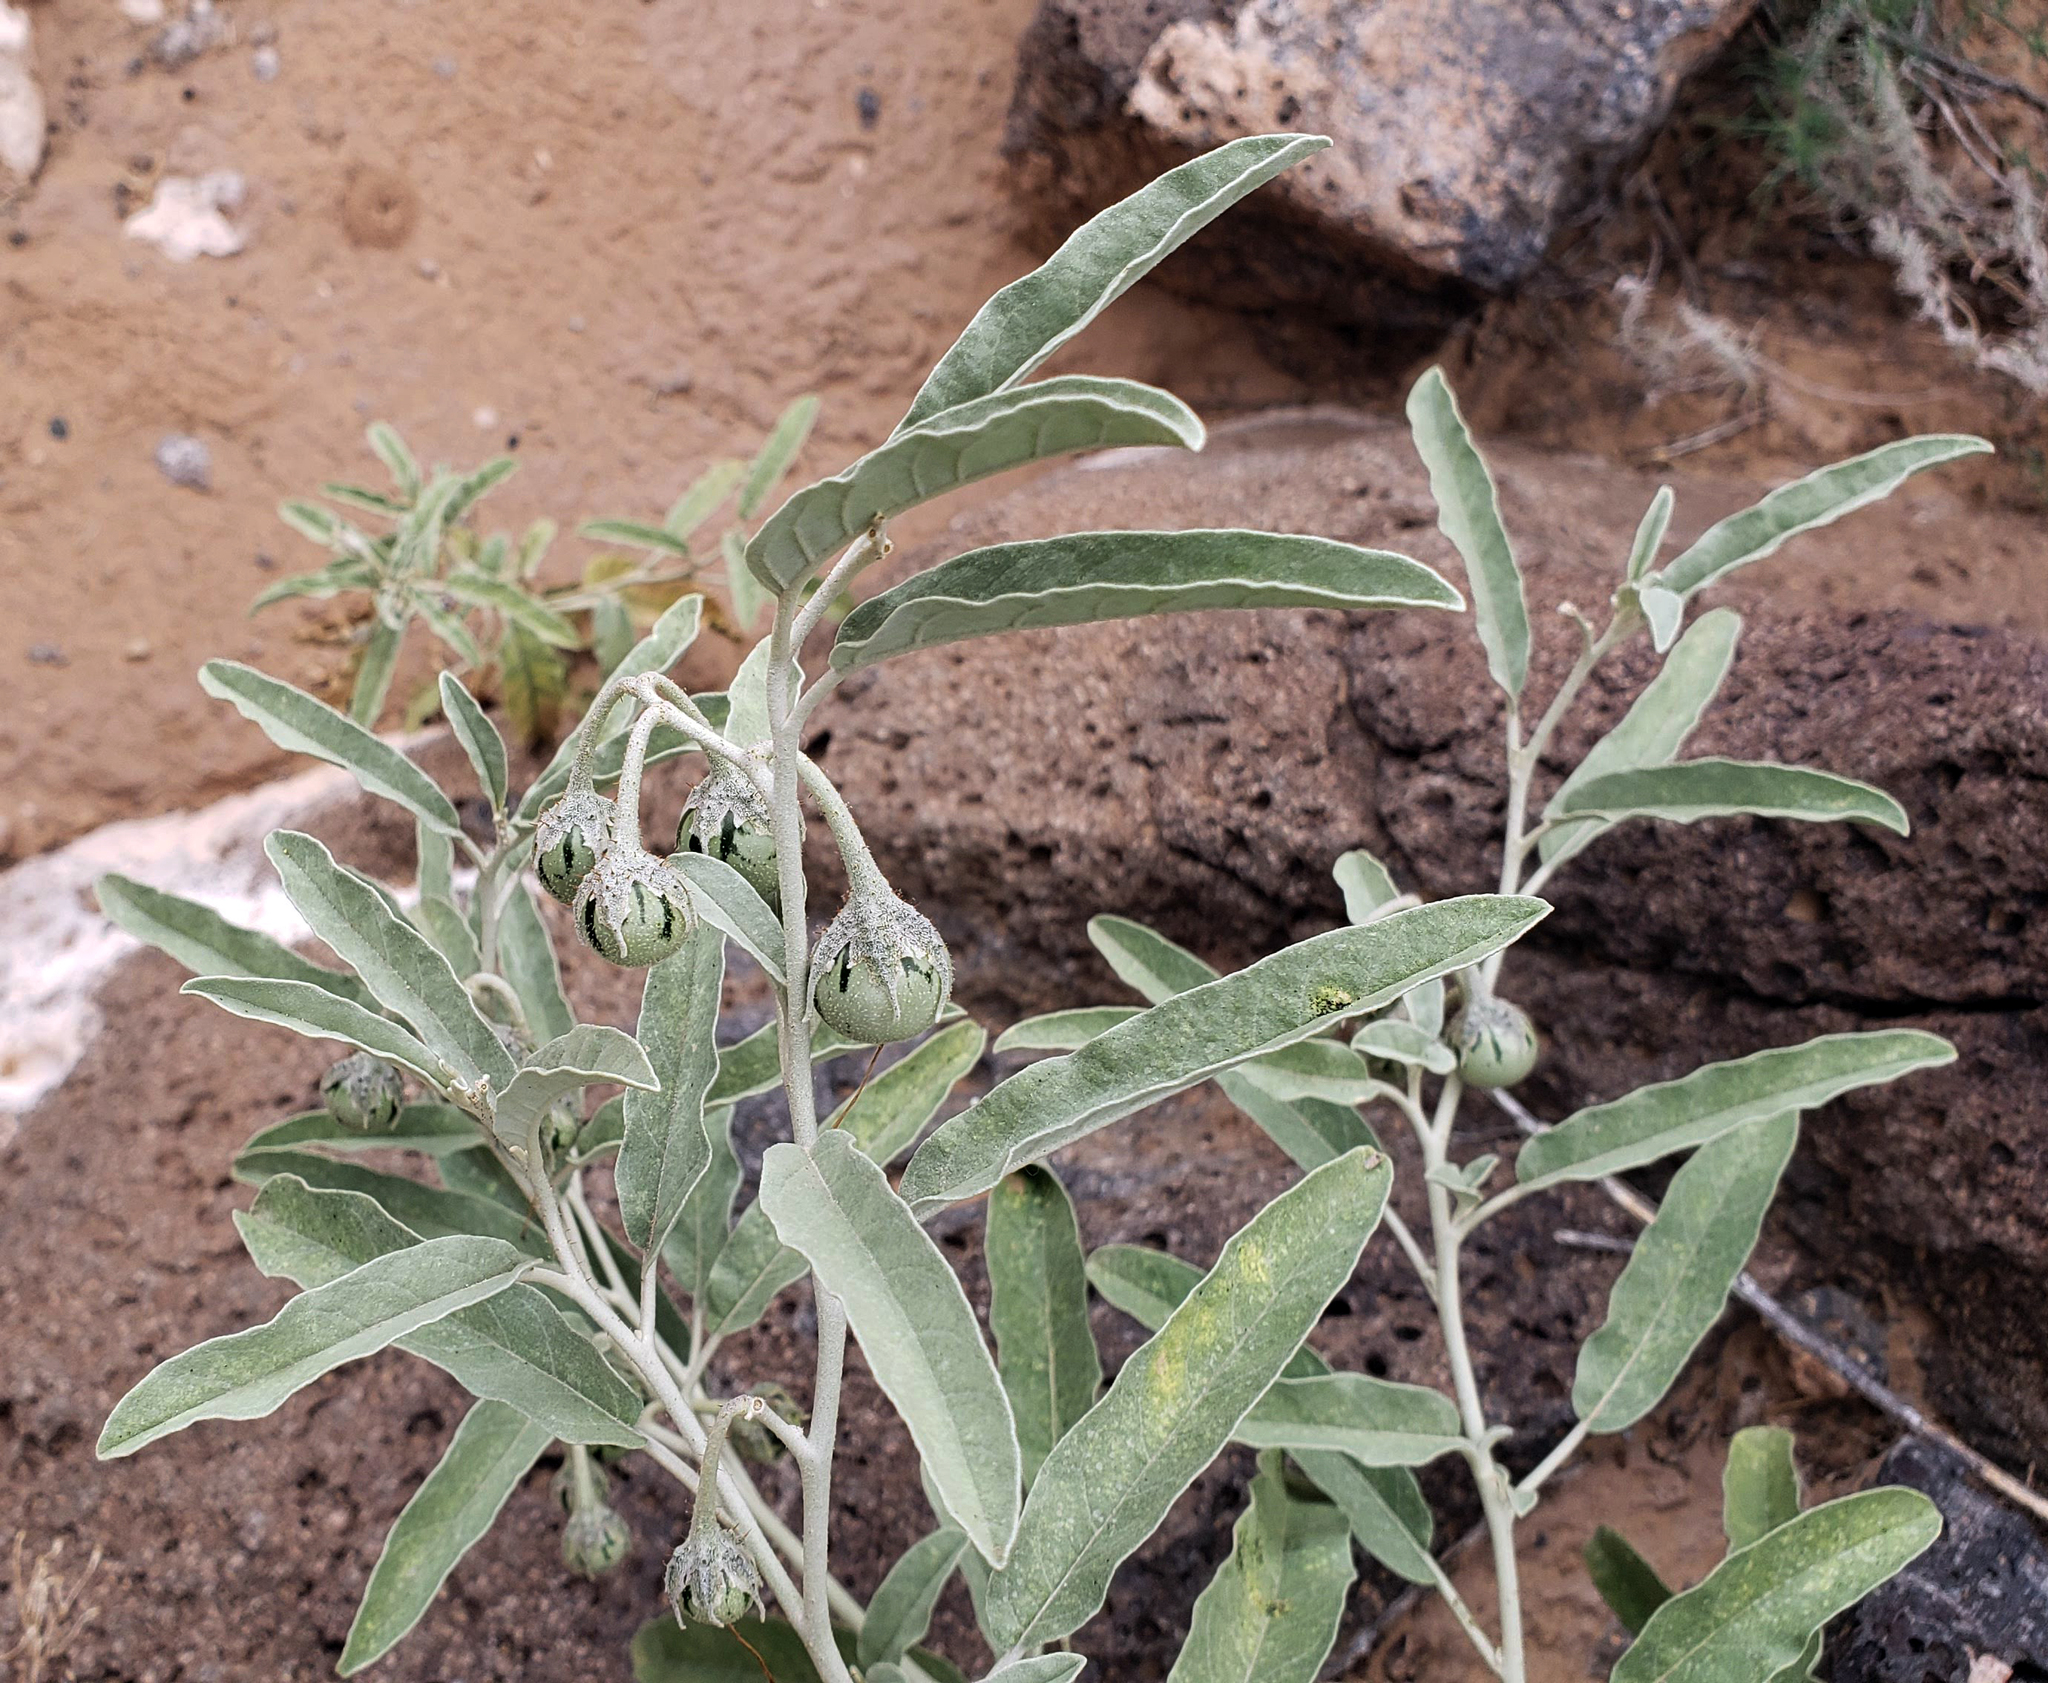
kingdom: Plantae
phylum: Tracheophyta
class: Magnoliopsida
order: Solanales
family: Solanaceae
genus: Solanum
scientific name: Solanum elaeagnifolium
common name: Silverleaf nightshade
